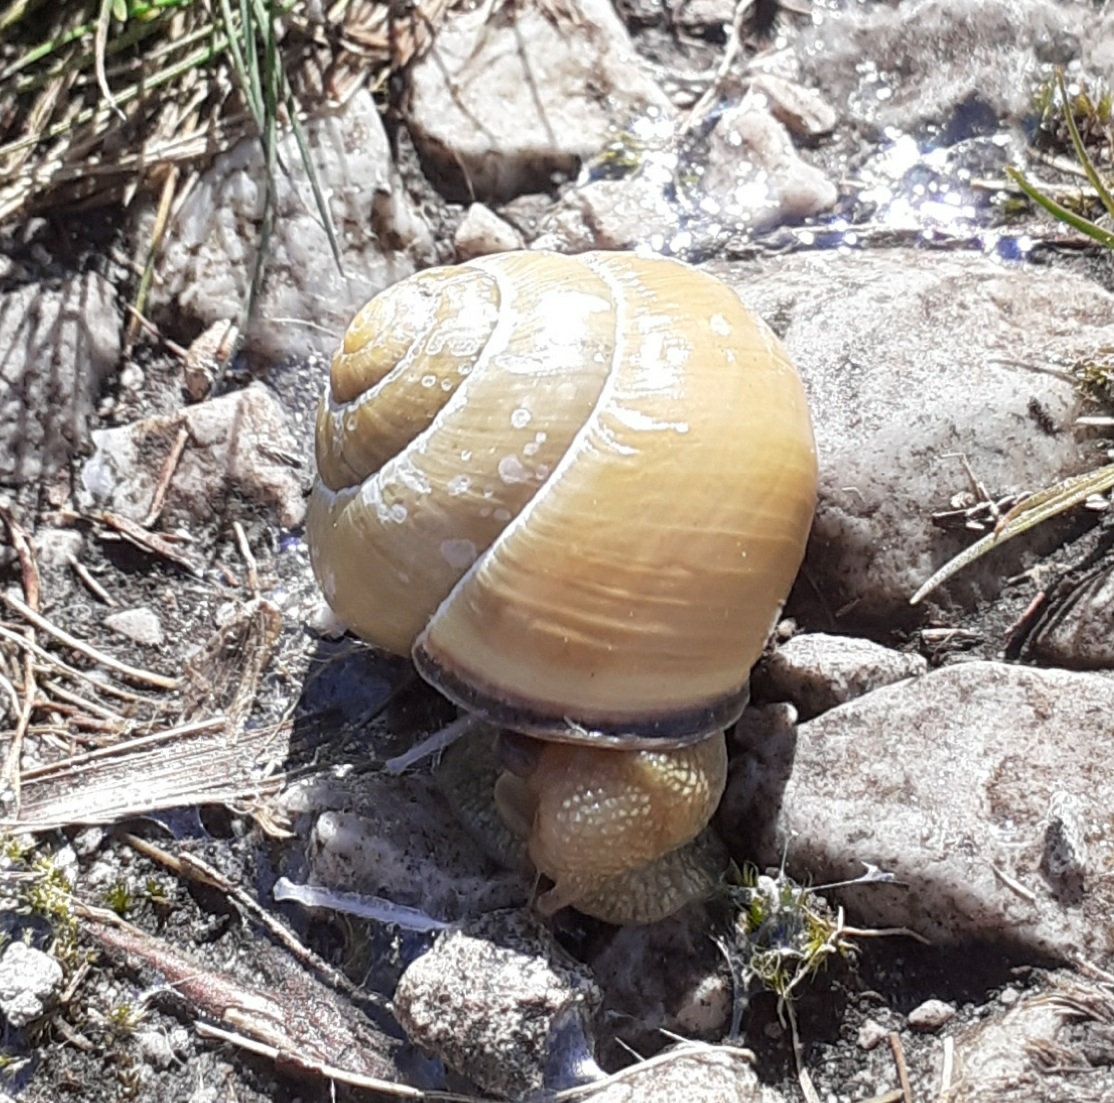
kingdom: Animalia
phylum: Mollusca
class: Gastropoda
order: Stylommatophora
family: Helicidae
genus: Cepaea
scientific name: Cepaea nemoralis
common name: Grovesnail
